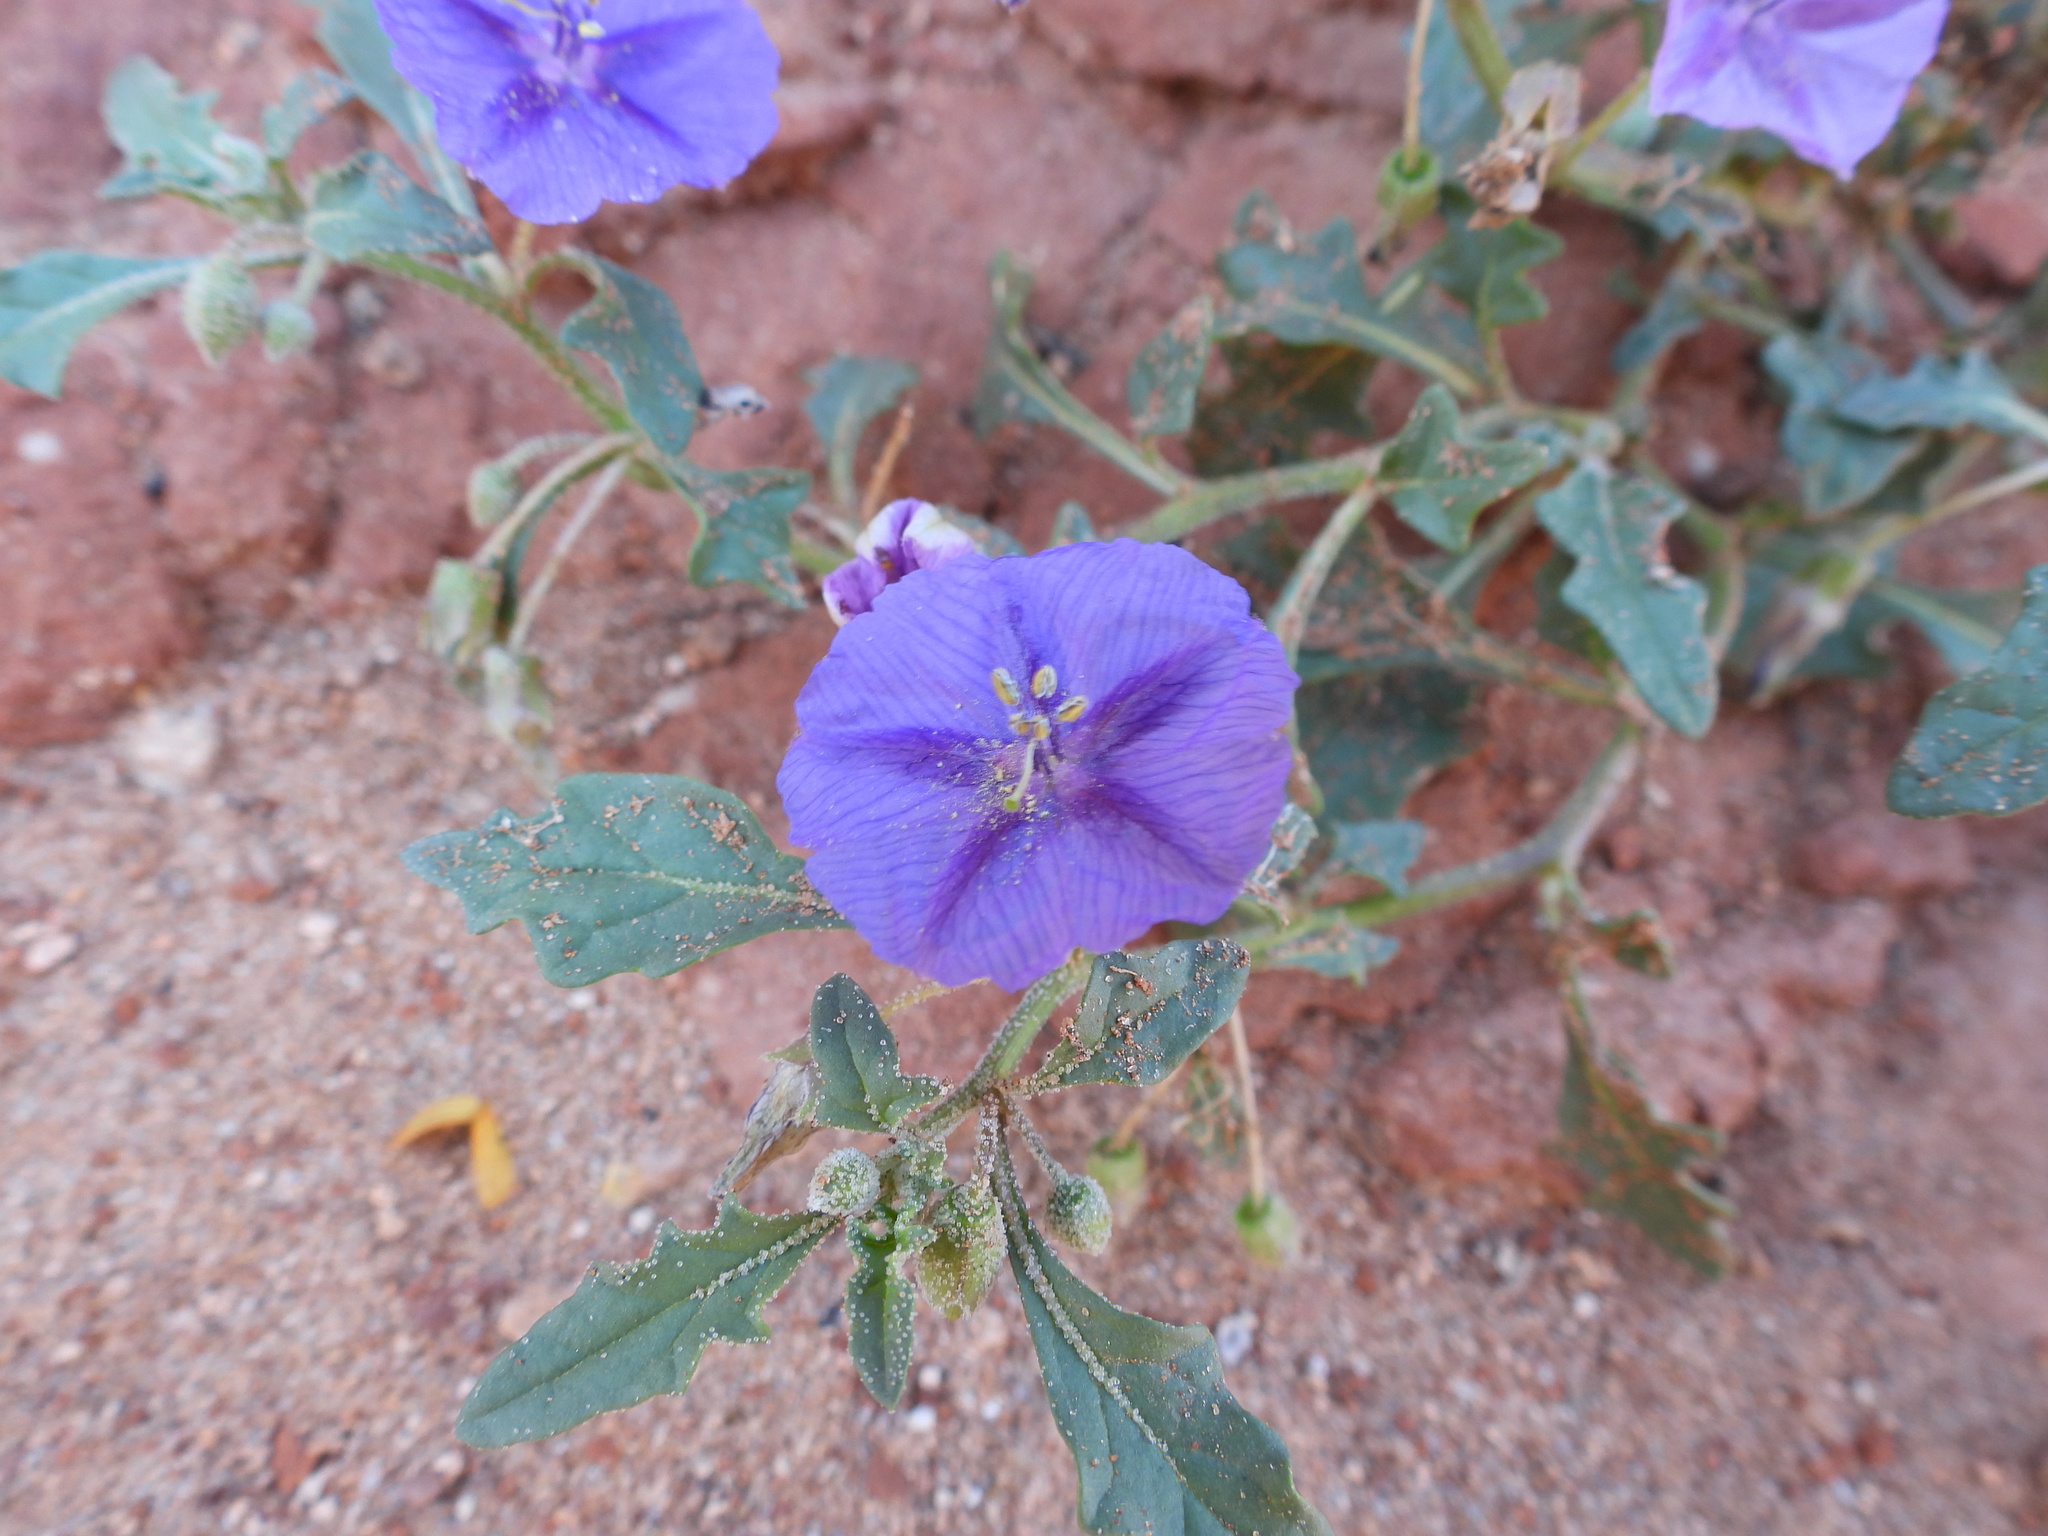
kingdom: Plantae
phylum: Tracheophyta
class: Magnoliopsida
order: Solanales
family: Solanaceae
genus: Quincula
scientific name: Quincula lobata
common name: Purple-ground-cherry
